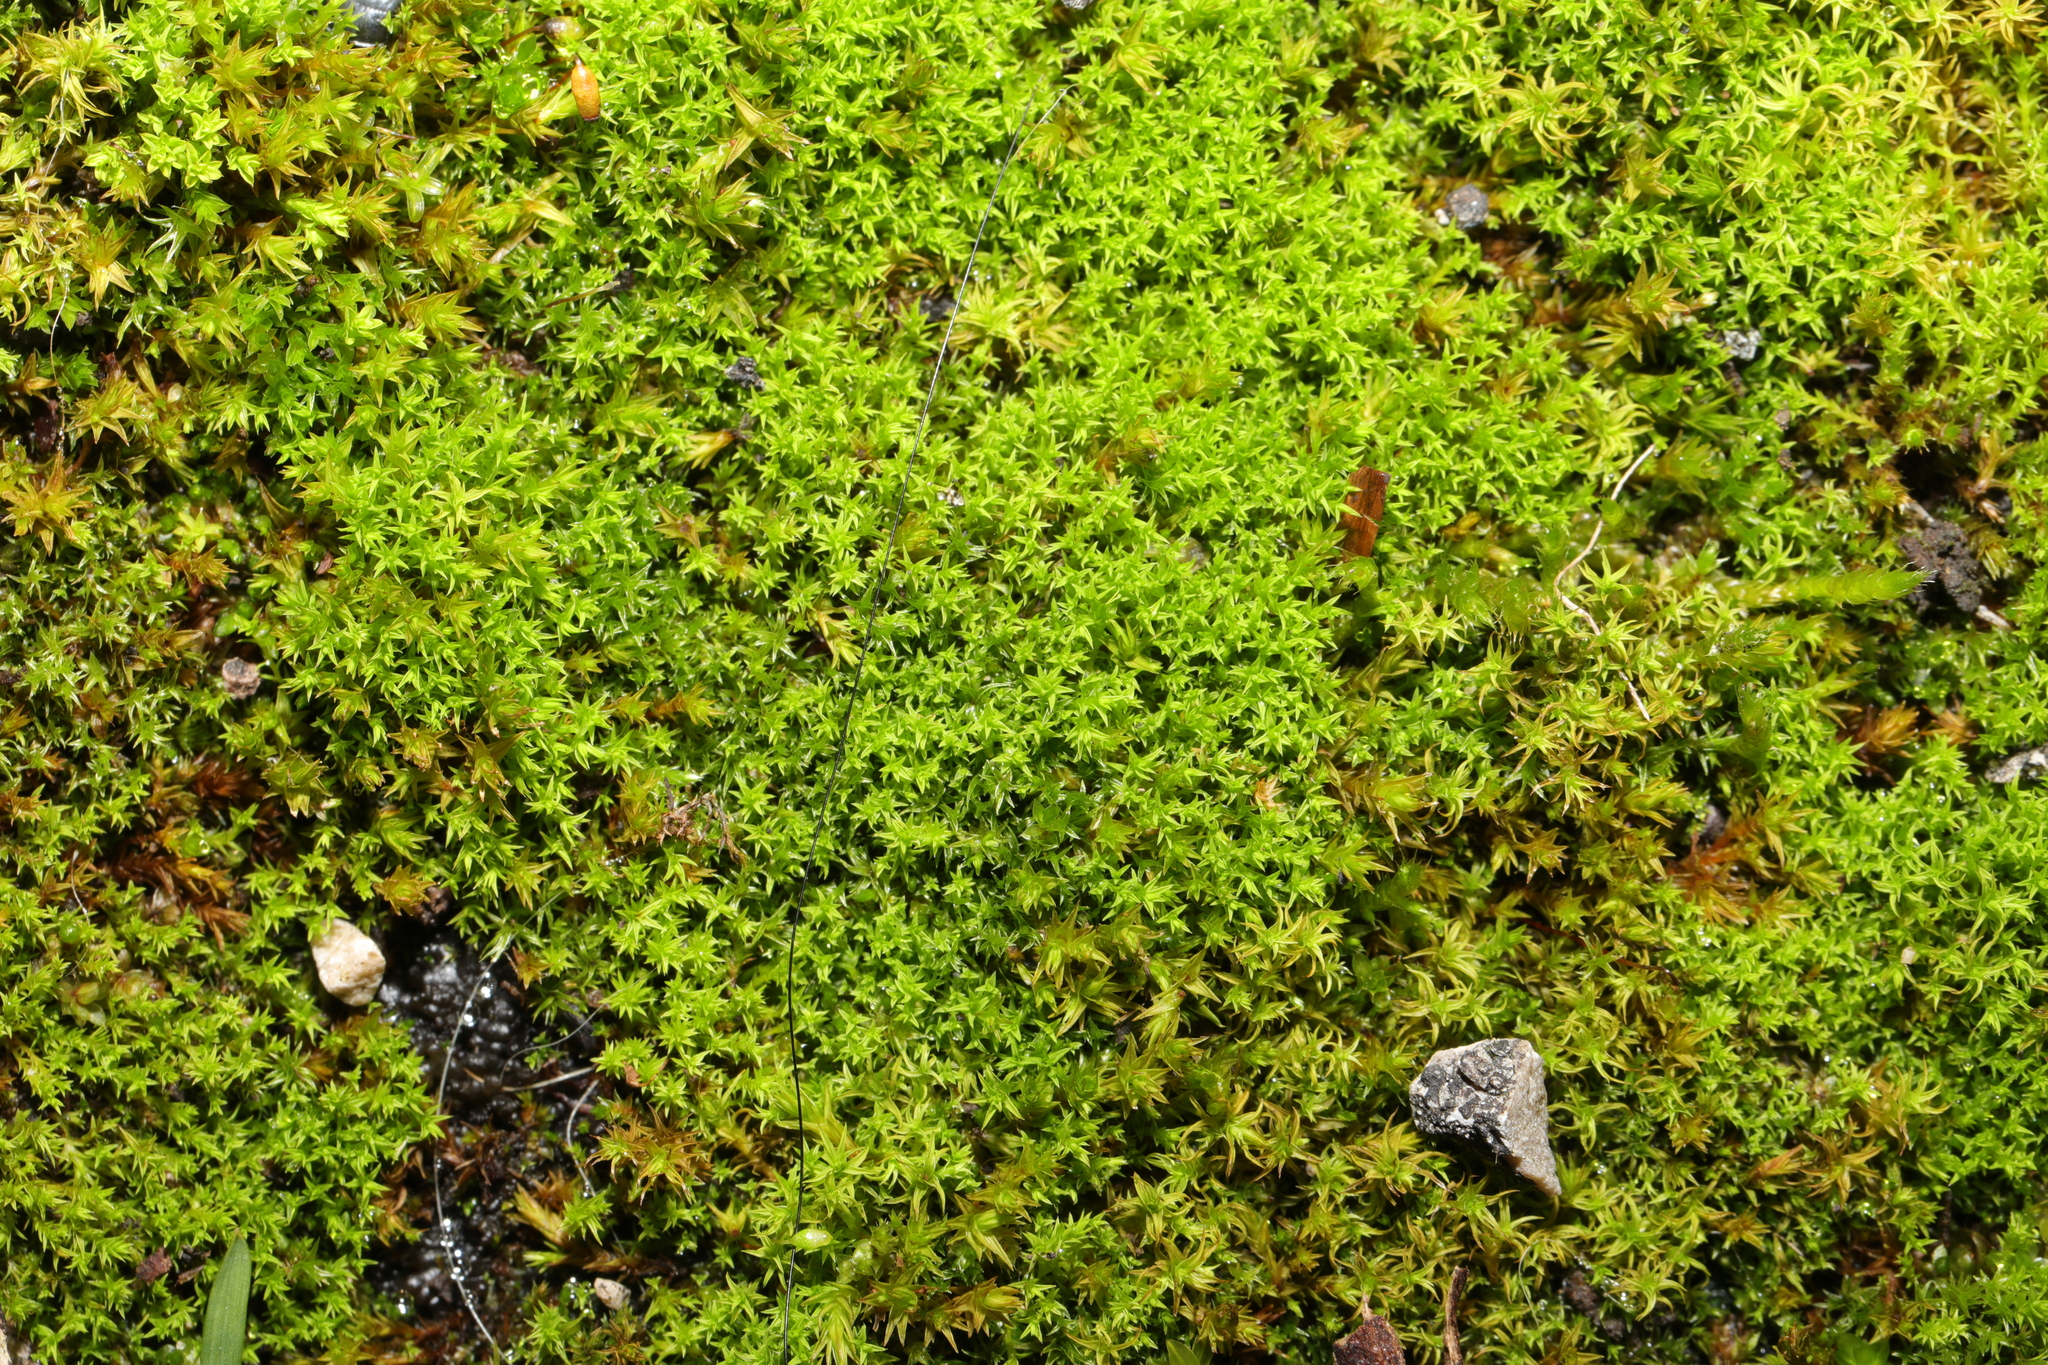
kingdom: Plantae
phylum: Bryophyta
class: Bryopsida
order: Pottiales
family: Pottiaceae
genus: Pseudocrossidium
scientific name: Pseudocrossidium hornschuchianum
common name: Hornschuch's beard-moss
